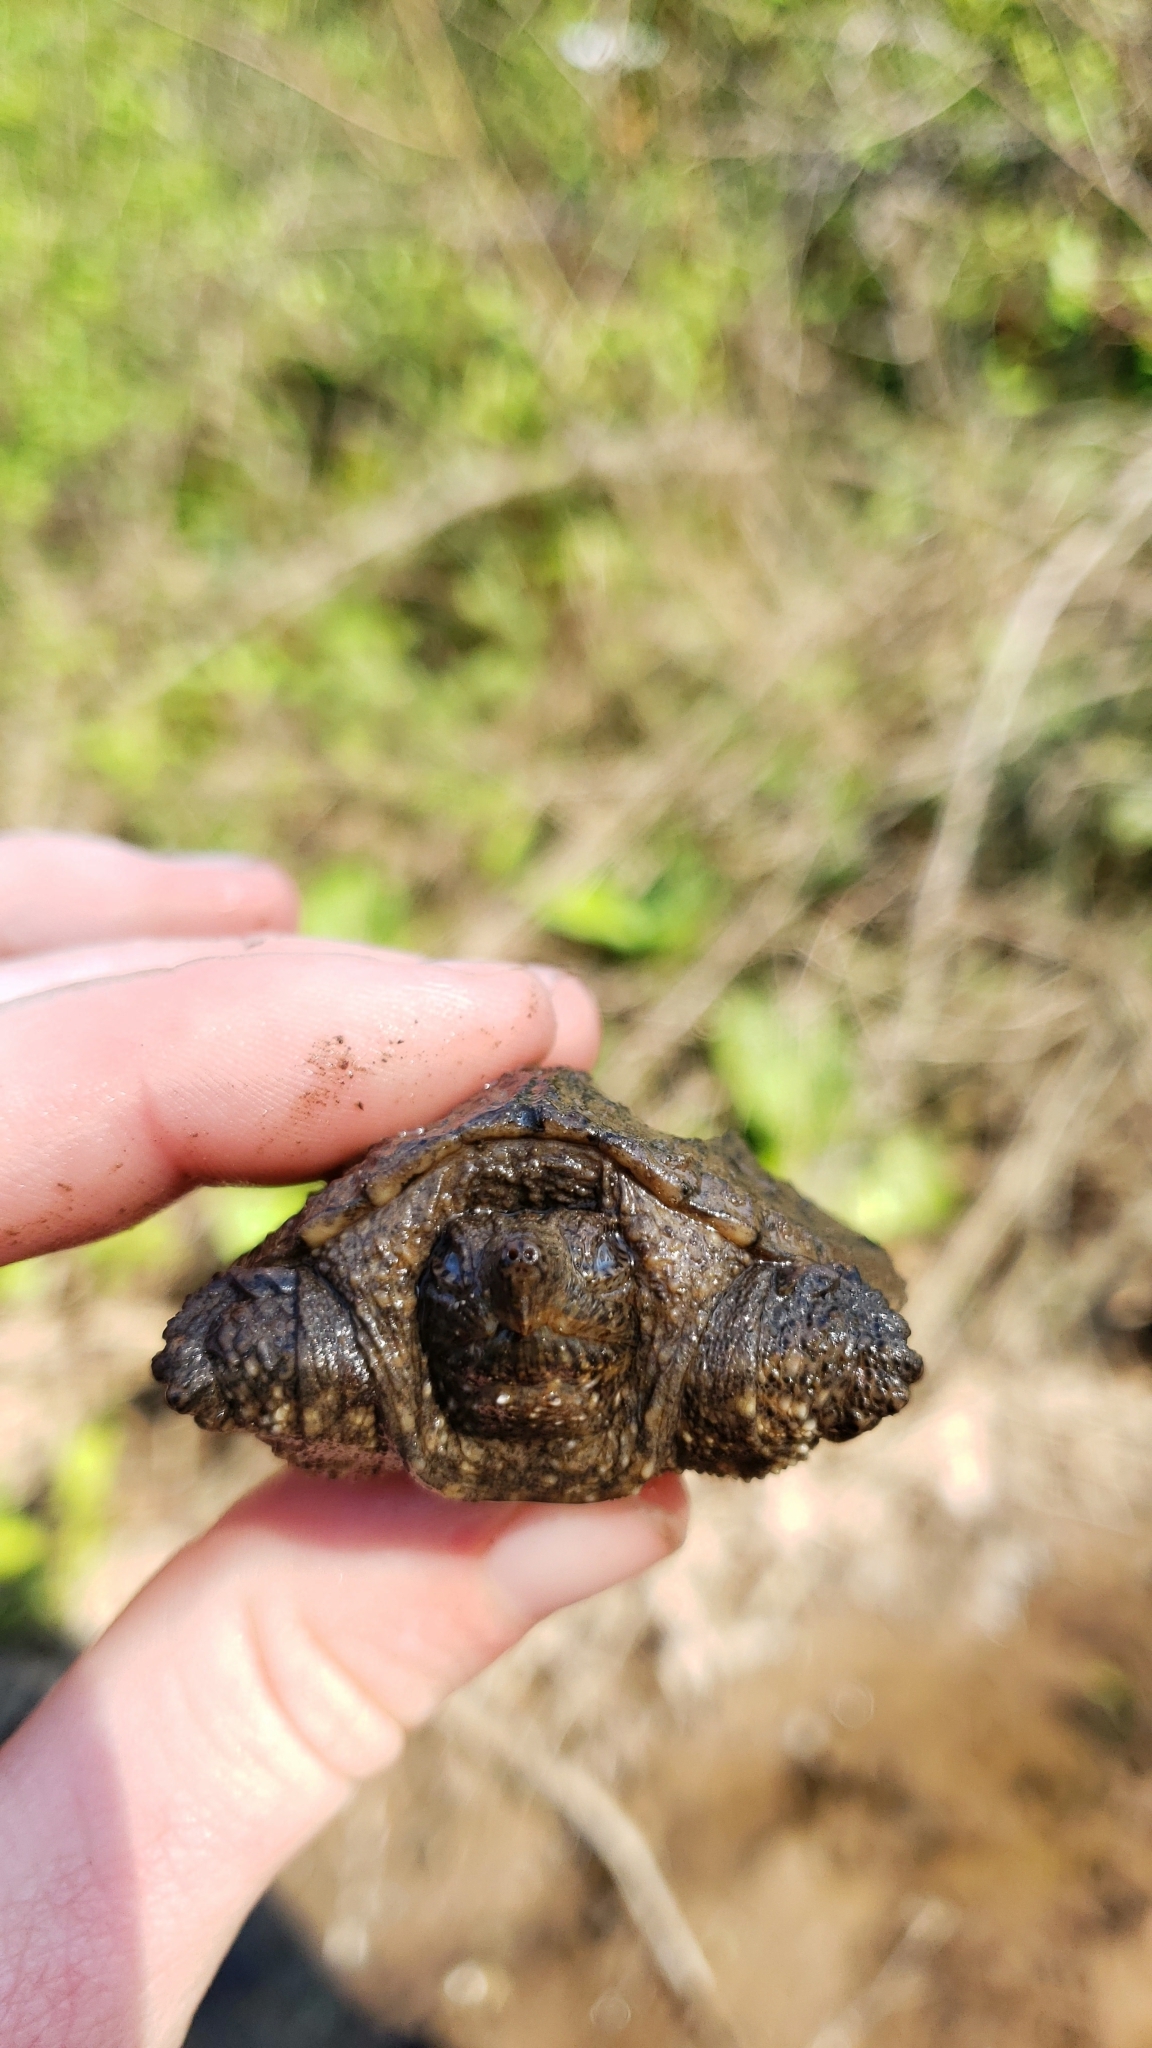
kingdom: Animalia
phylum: Chordata
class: Testudines
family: Chelydridae
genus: Chelydra
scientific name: Chelydra serpentina
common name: Common snapping turtle
